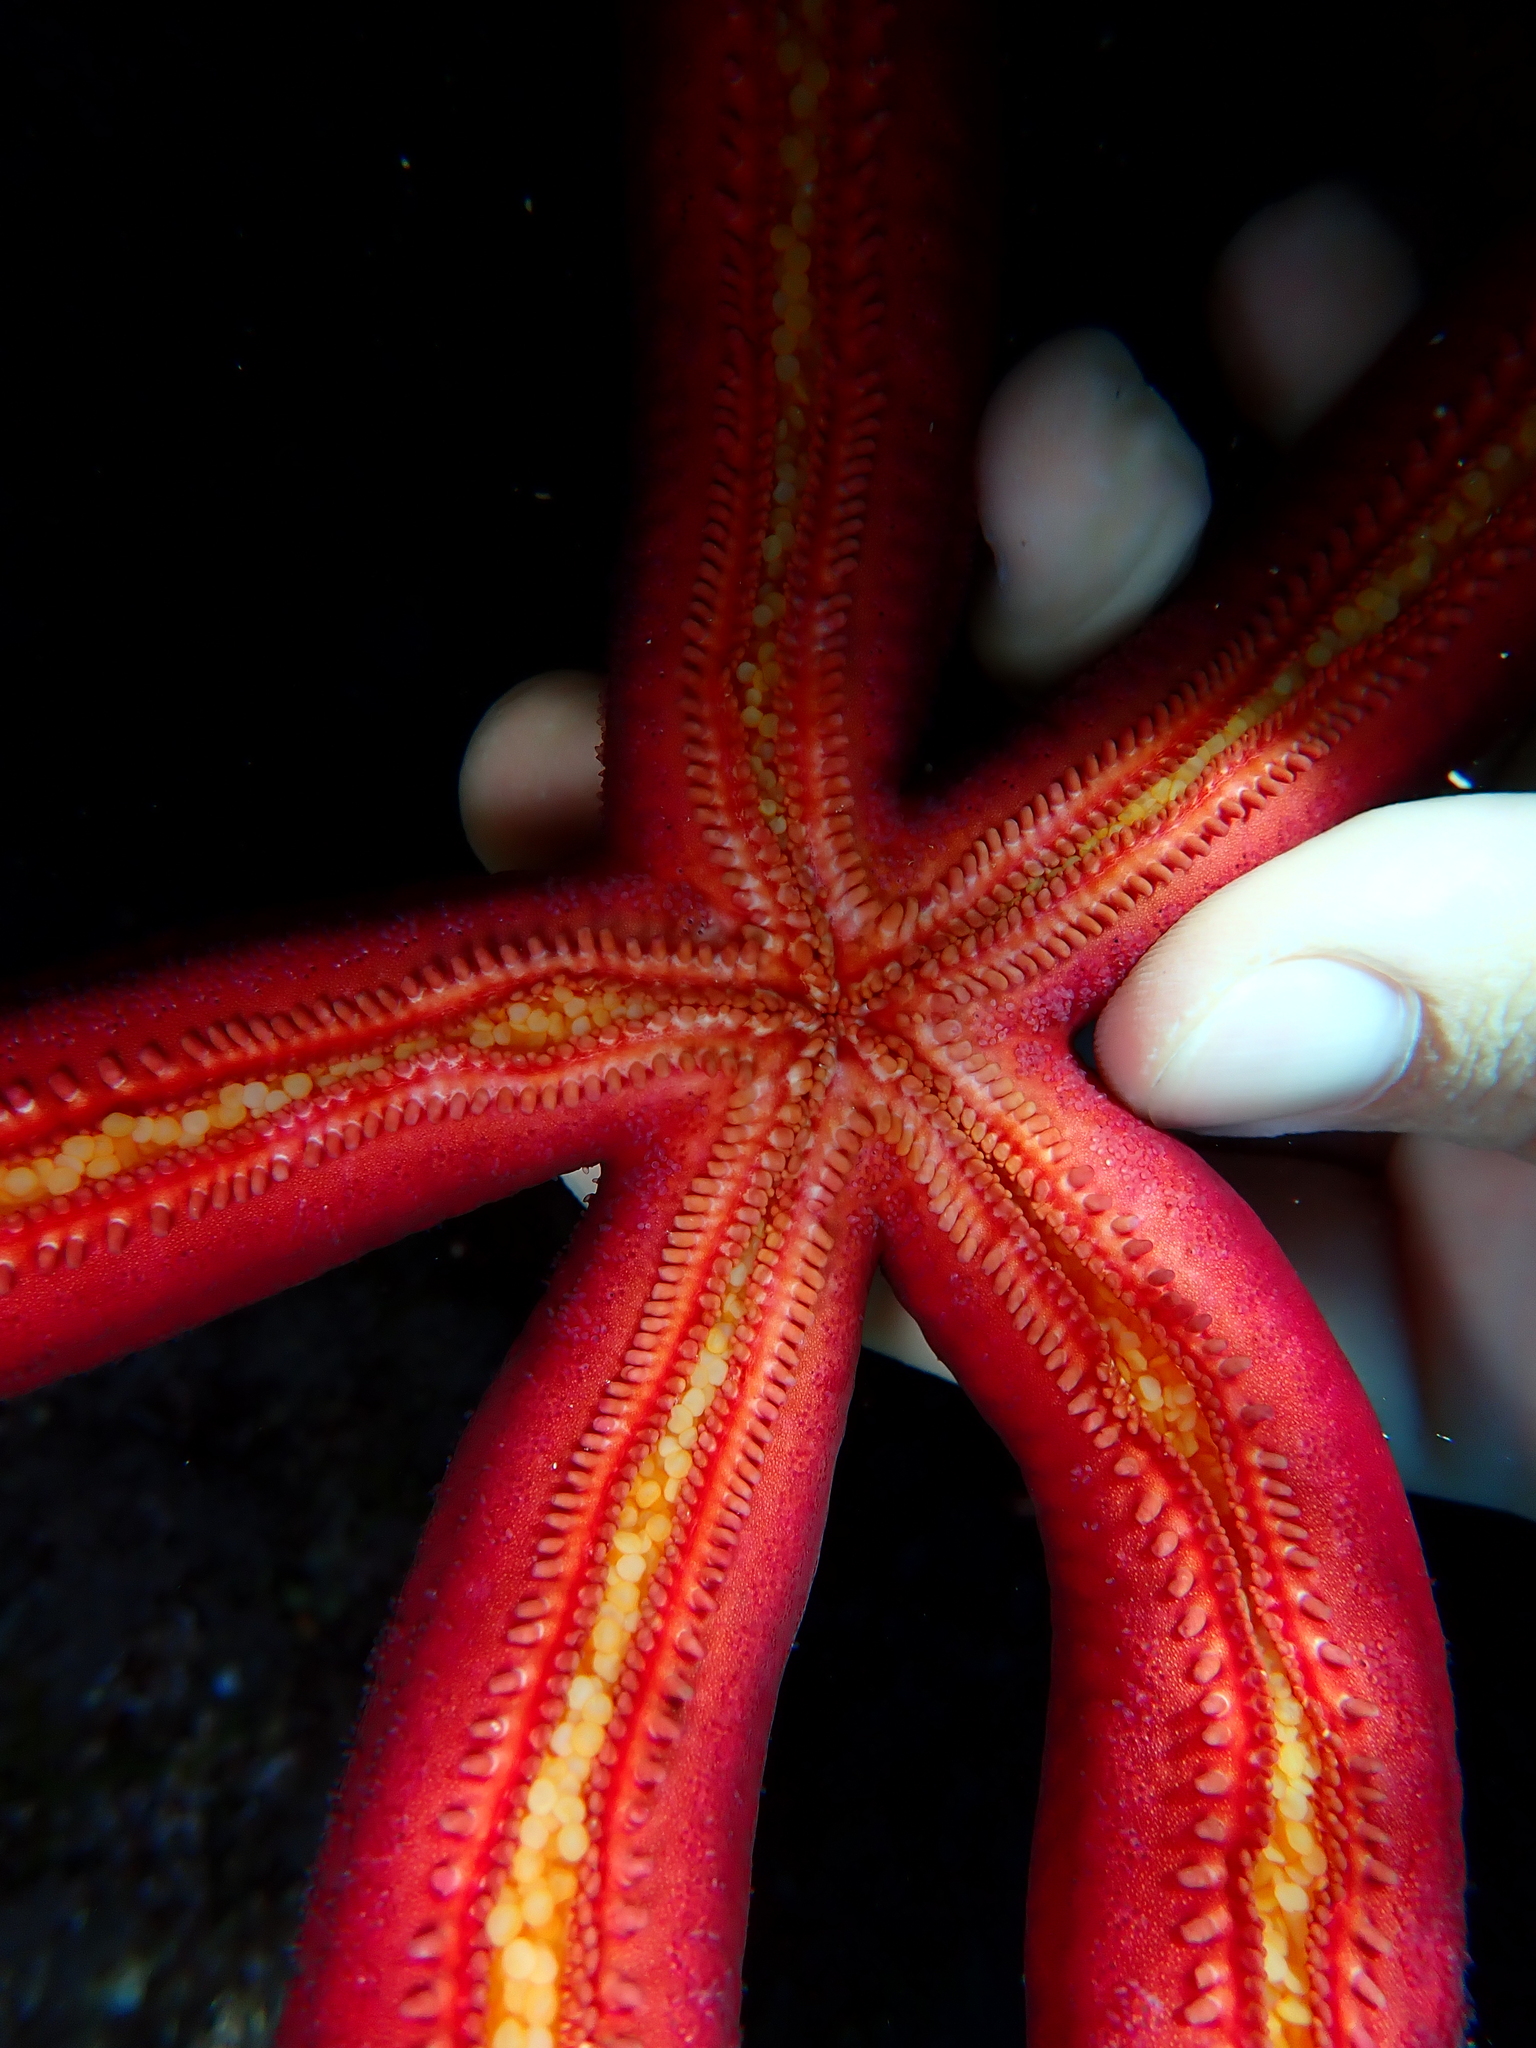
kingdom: Animalia
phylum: Echinodermata
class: Asteroidea
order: Valvatida
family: Ophidiasteridae
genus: Ophidiaster
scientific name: Ophidiaster ophidianus
